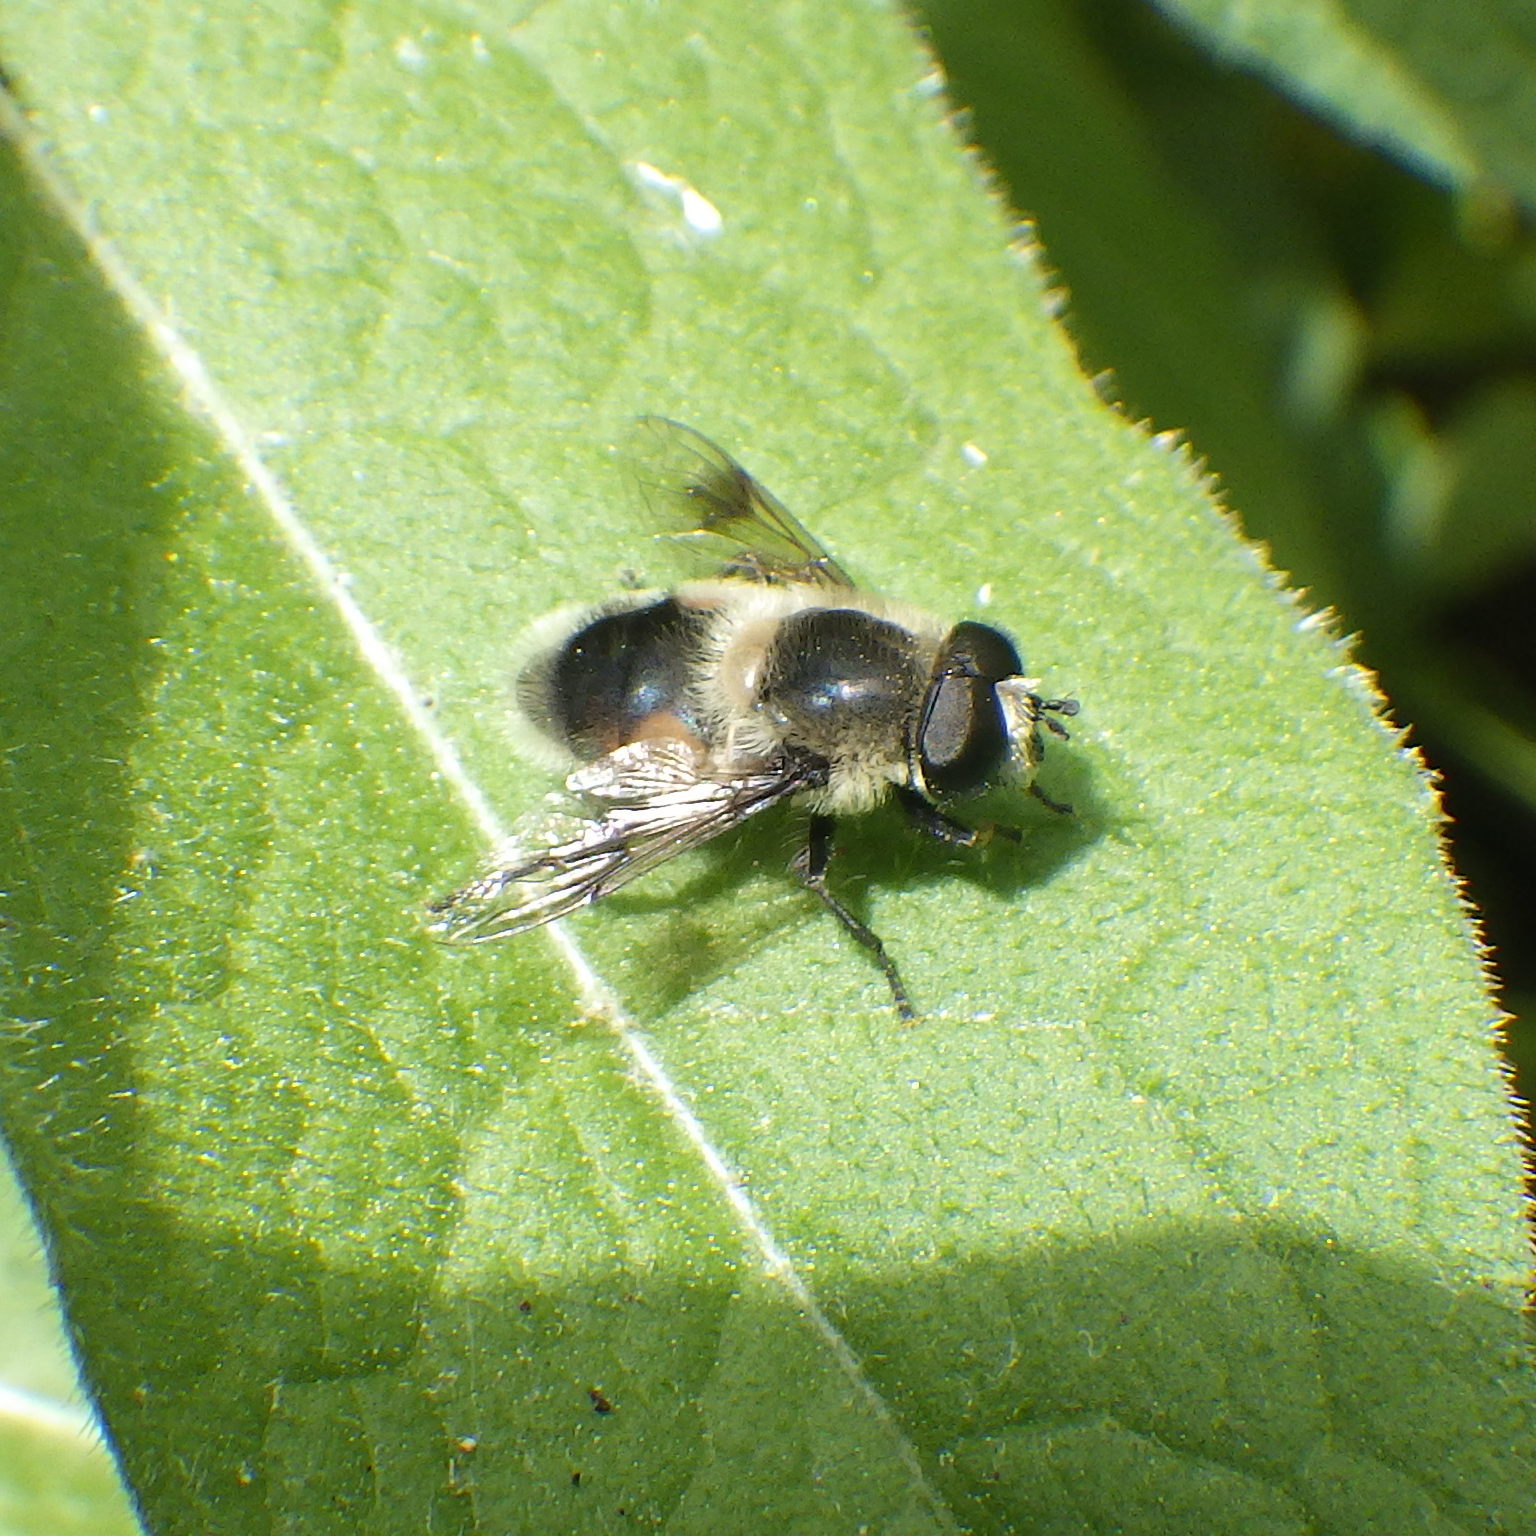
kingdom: Animalia
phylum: Arthropoda
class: Insecta
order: Diptera
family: Syrphidae
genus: Eristalis
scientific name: Eristalis anthophorina
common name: Orange-spotted drone fly
